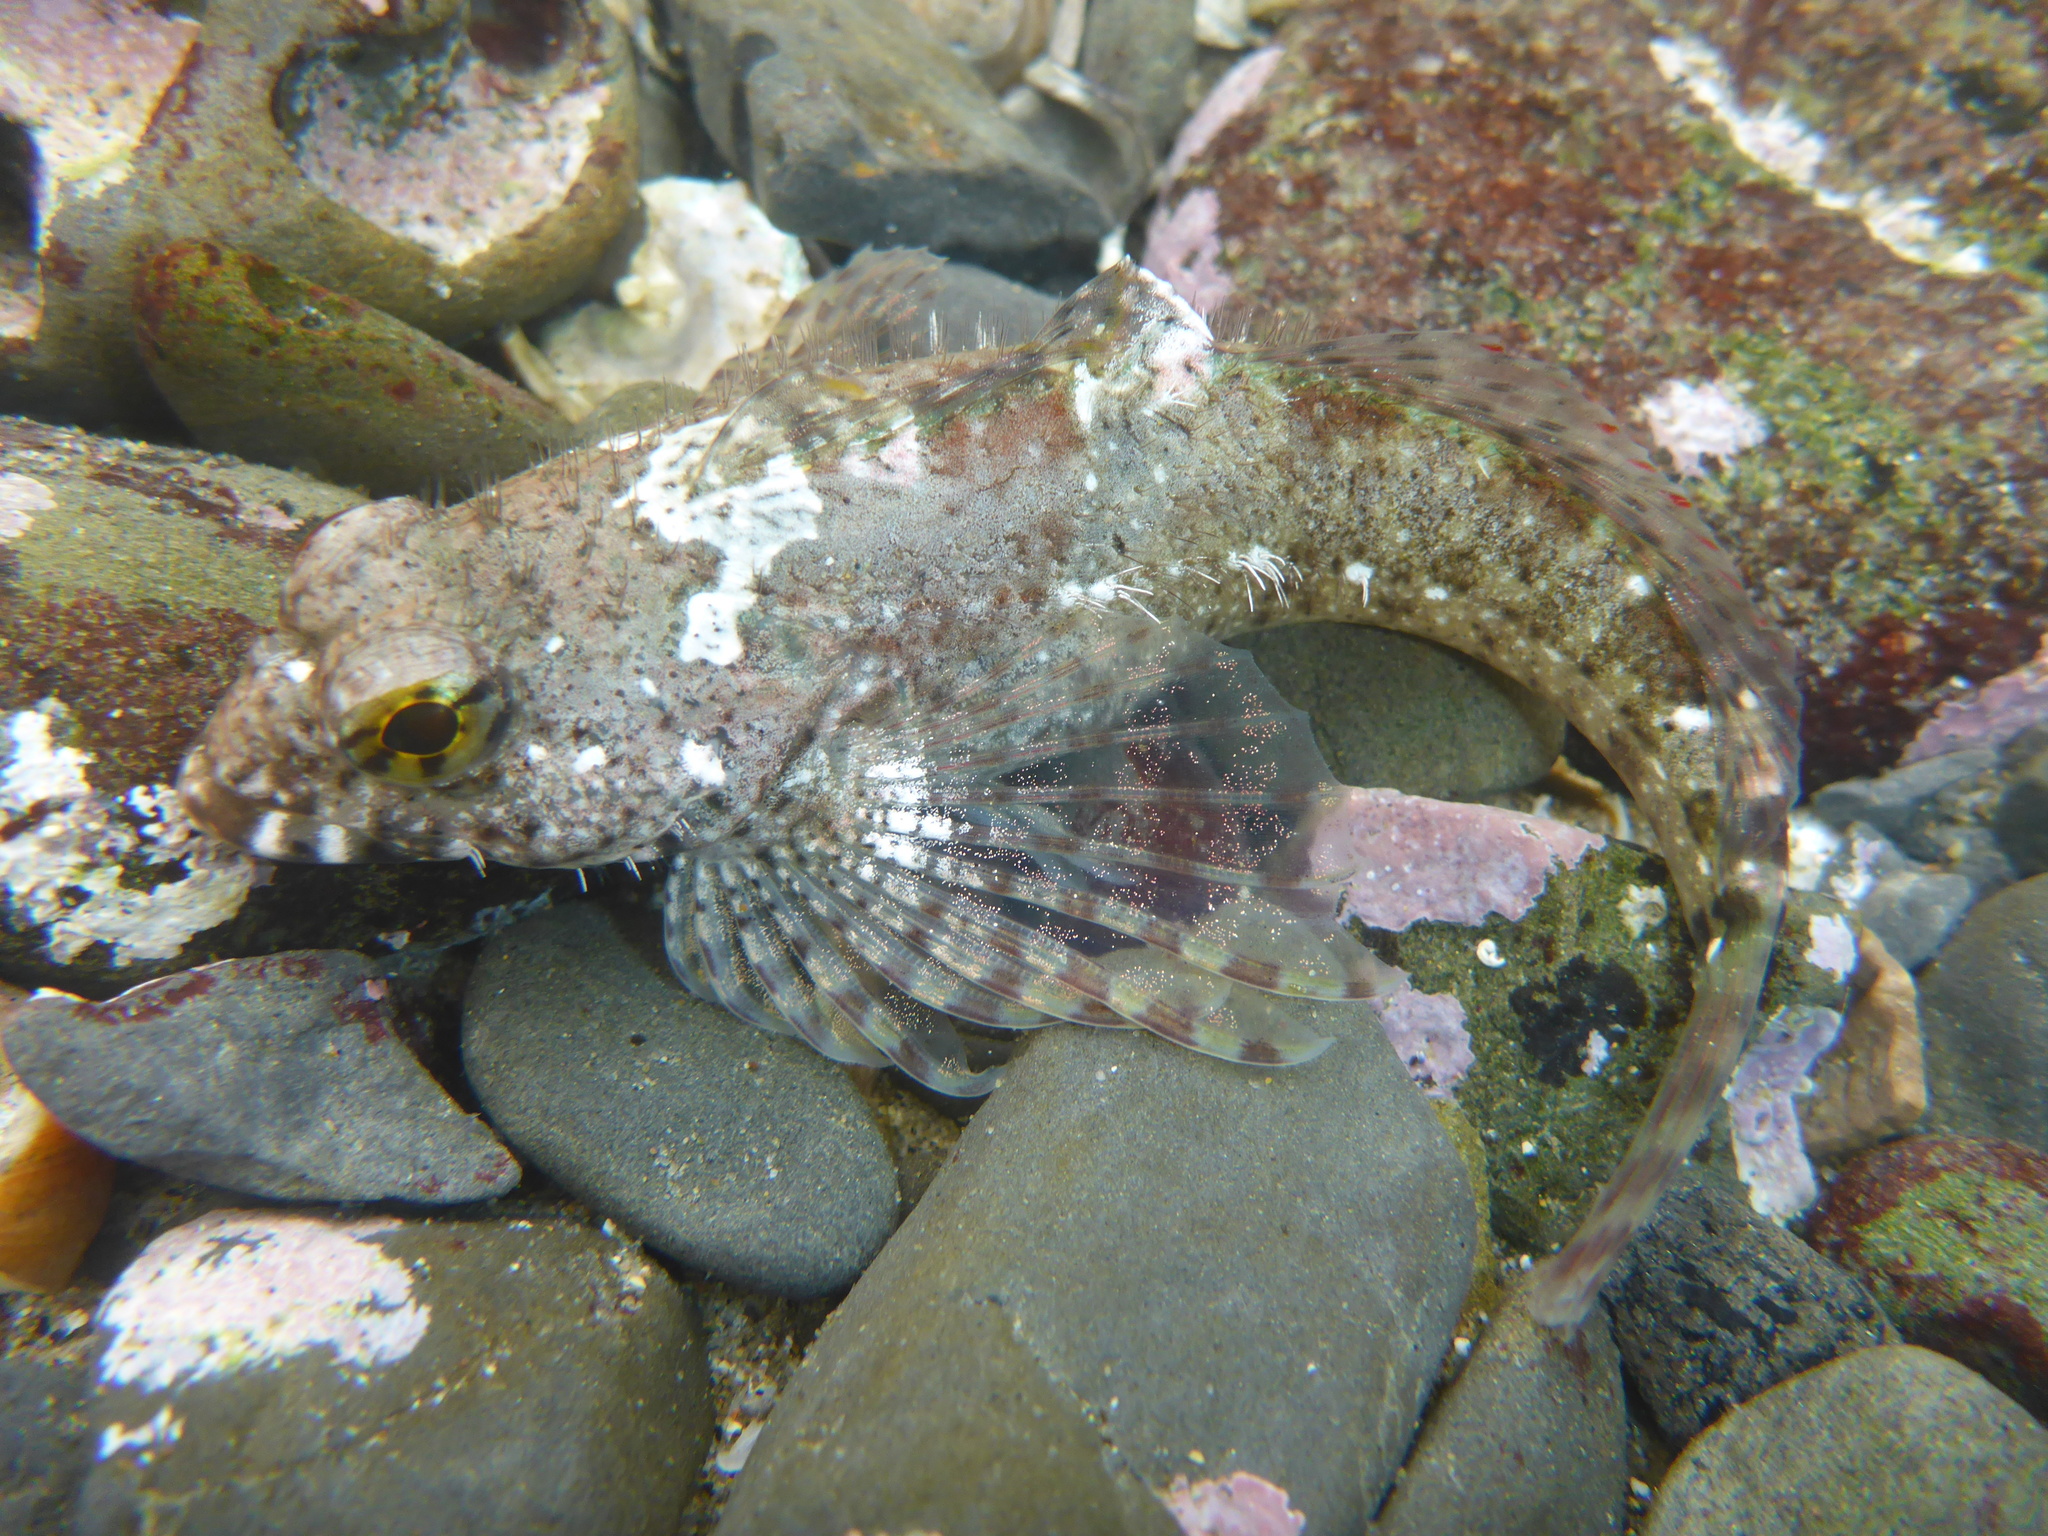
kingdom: Animalia
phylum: Chordata
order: Scorpaeniformes
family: Cottidae
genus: Clinocottus
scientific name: Clinocottus analis
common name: Woolly sculpin
